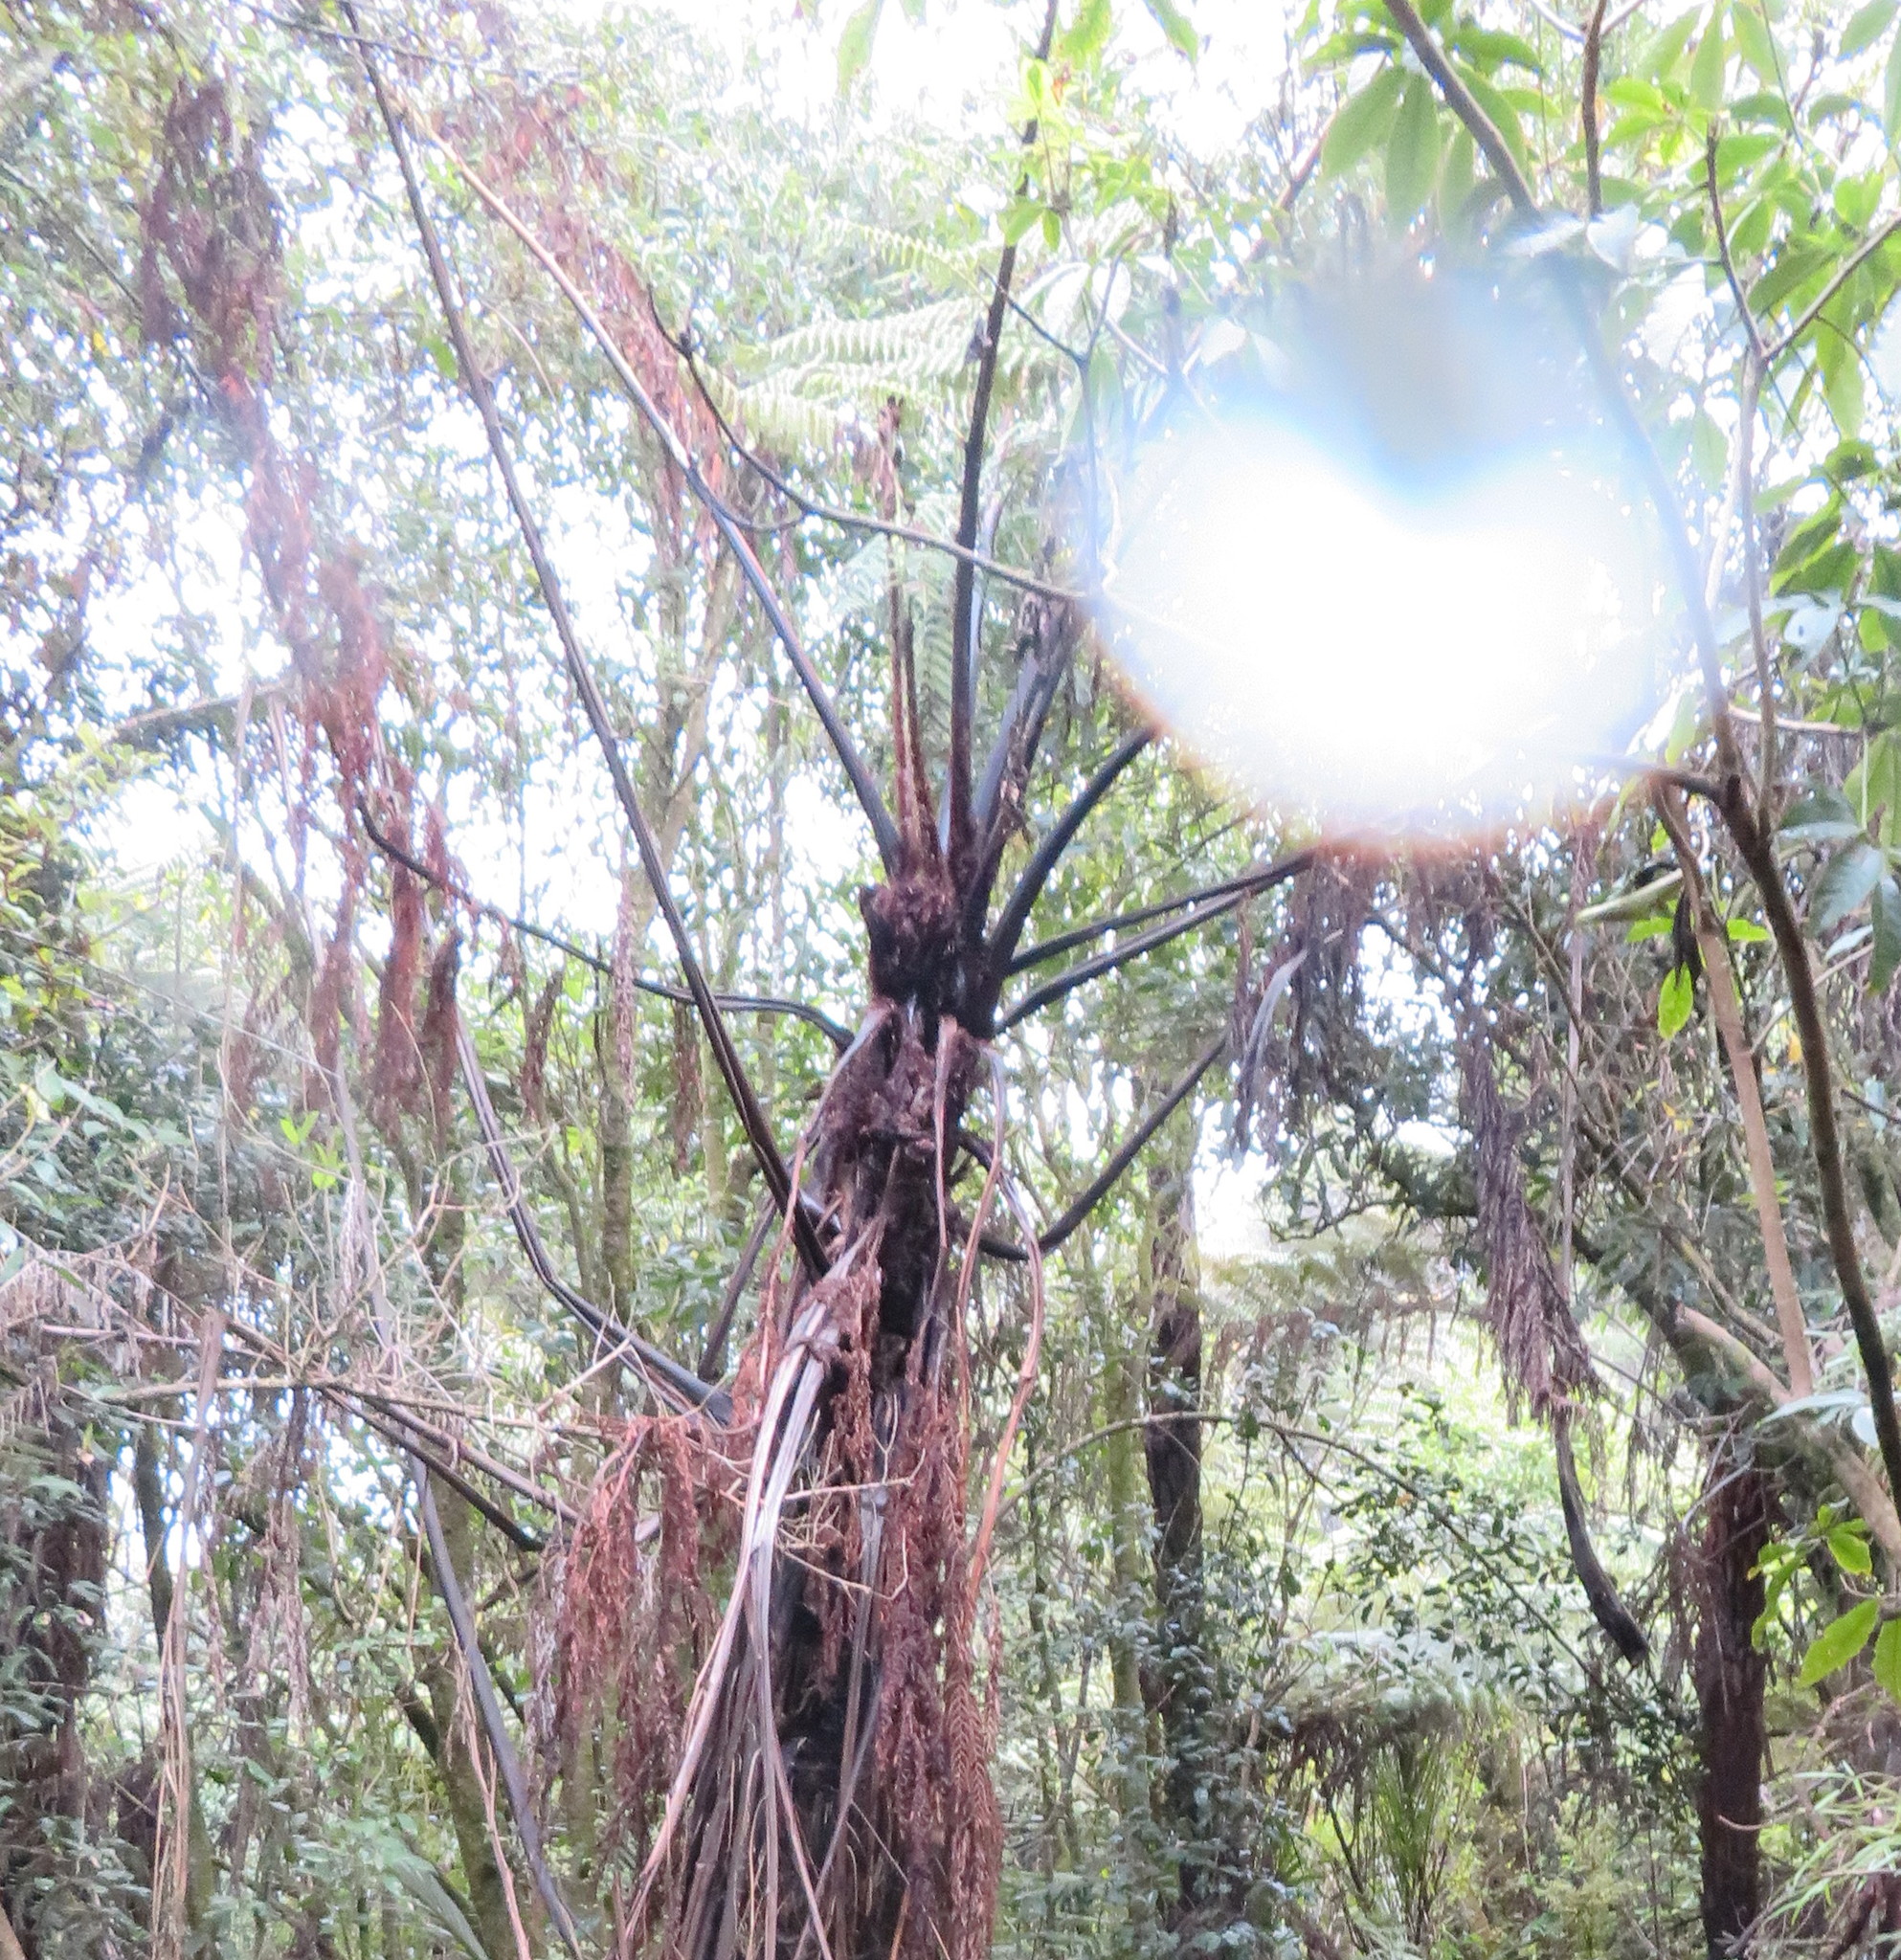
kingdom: Plantae
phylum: Tracheophyta
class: Polypodiopsida
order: Cyatheales
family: Cyatheaceae
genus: Sphaeropteris
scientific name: Sphaeropteris medullaris
